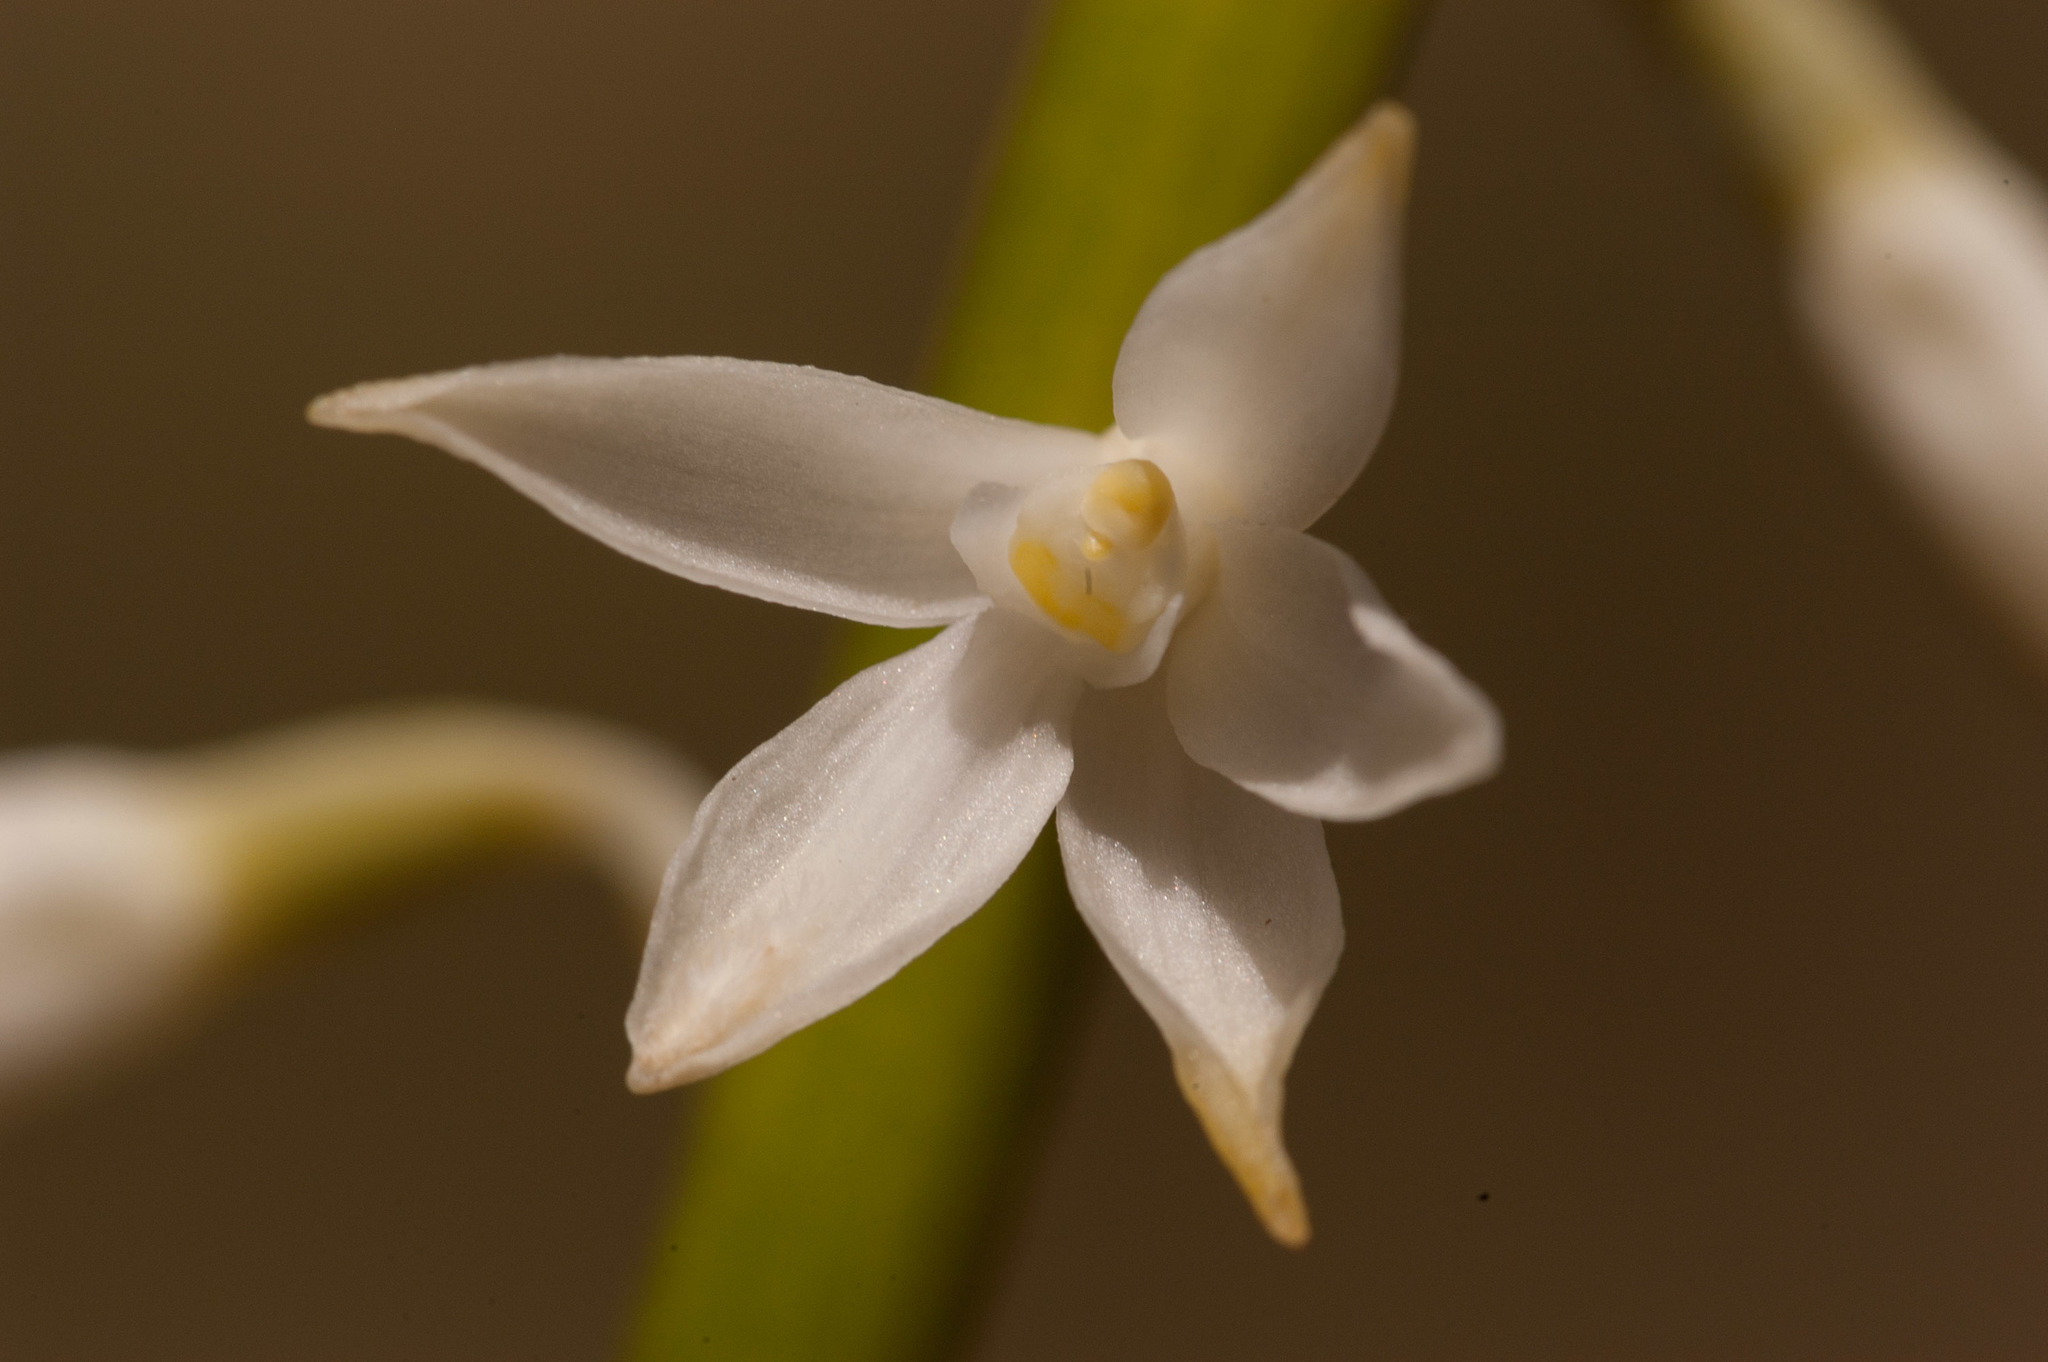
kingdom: Plantae
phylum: Tracheophyta
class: Liliopsida
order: Asparagales
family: Orchidaceae
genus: Dipodium
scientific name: Dipodium roseum
